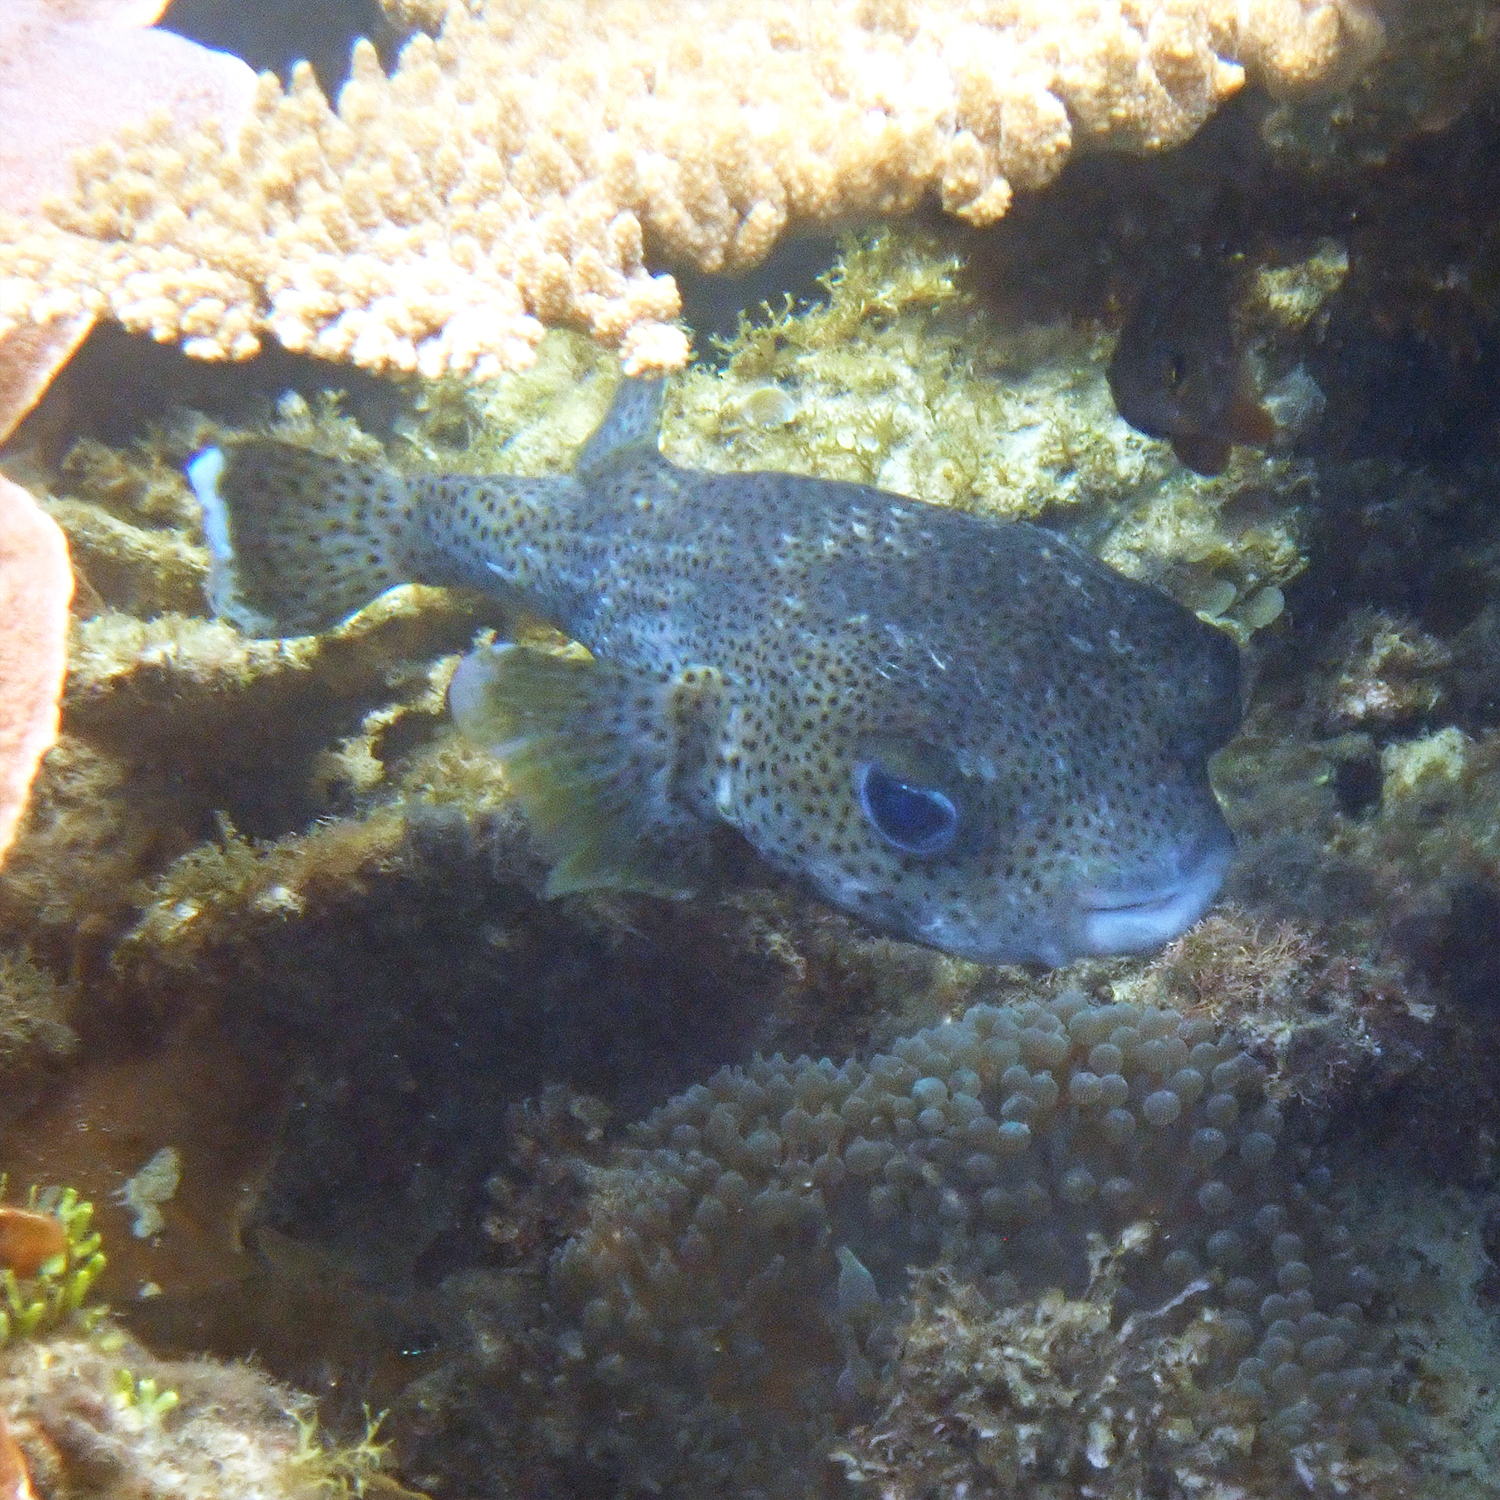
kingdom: Animalia
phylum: Chordata
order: Tetraodontiformes
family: Diodontidae
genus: Diodon
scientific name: Diodon hystrix
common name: Giant porcupinefish
